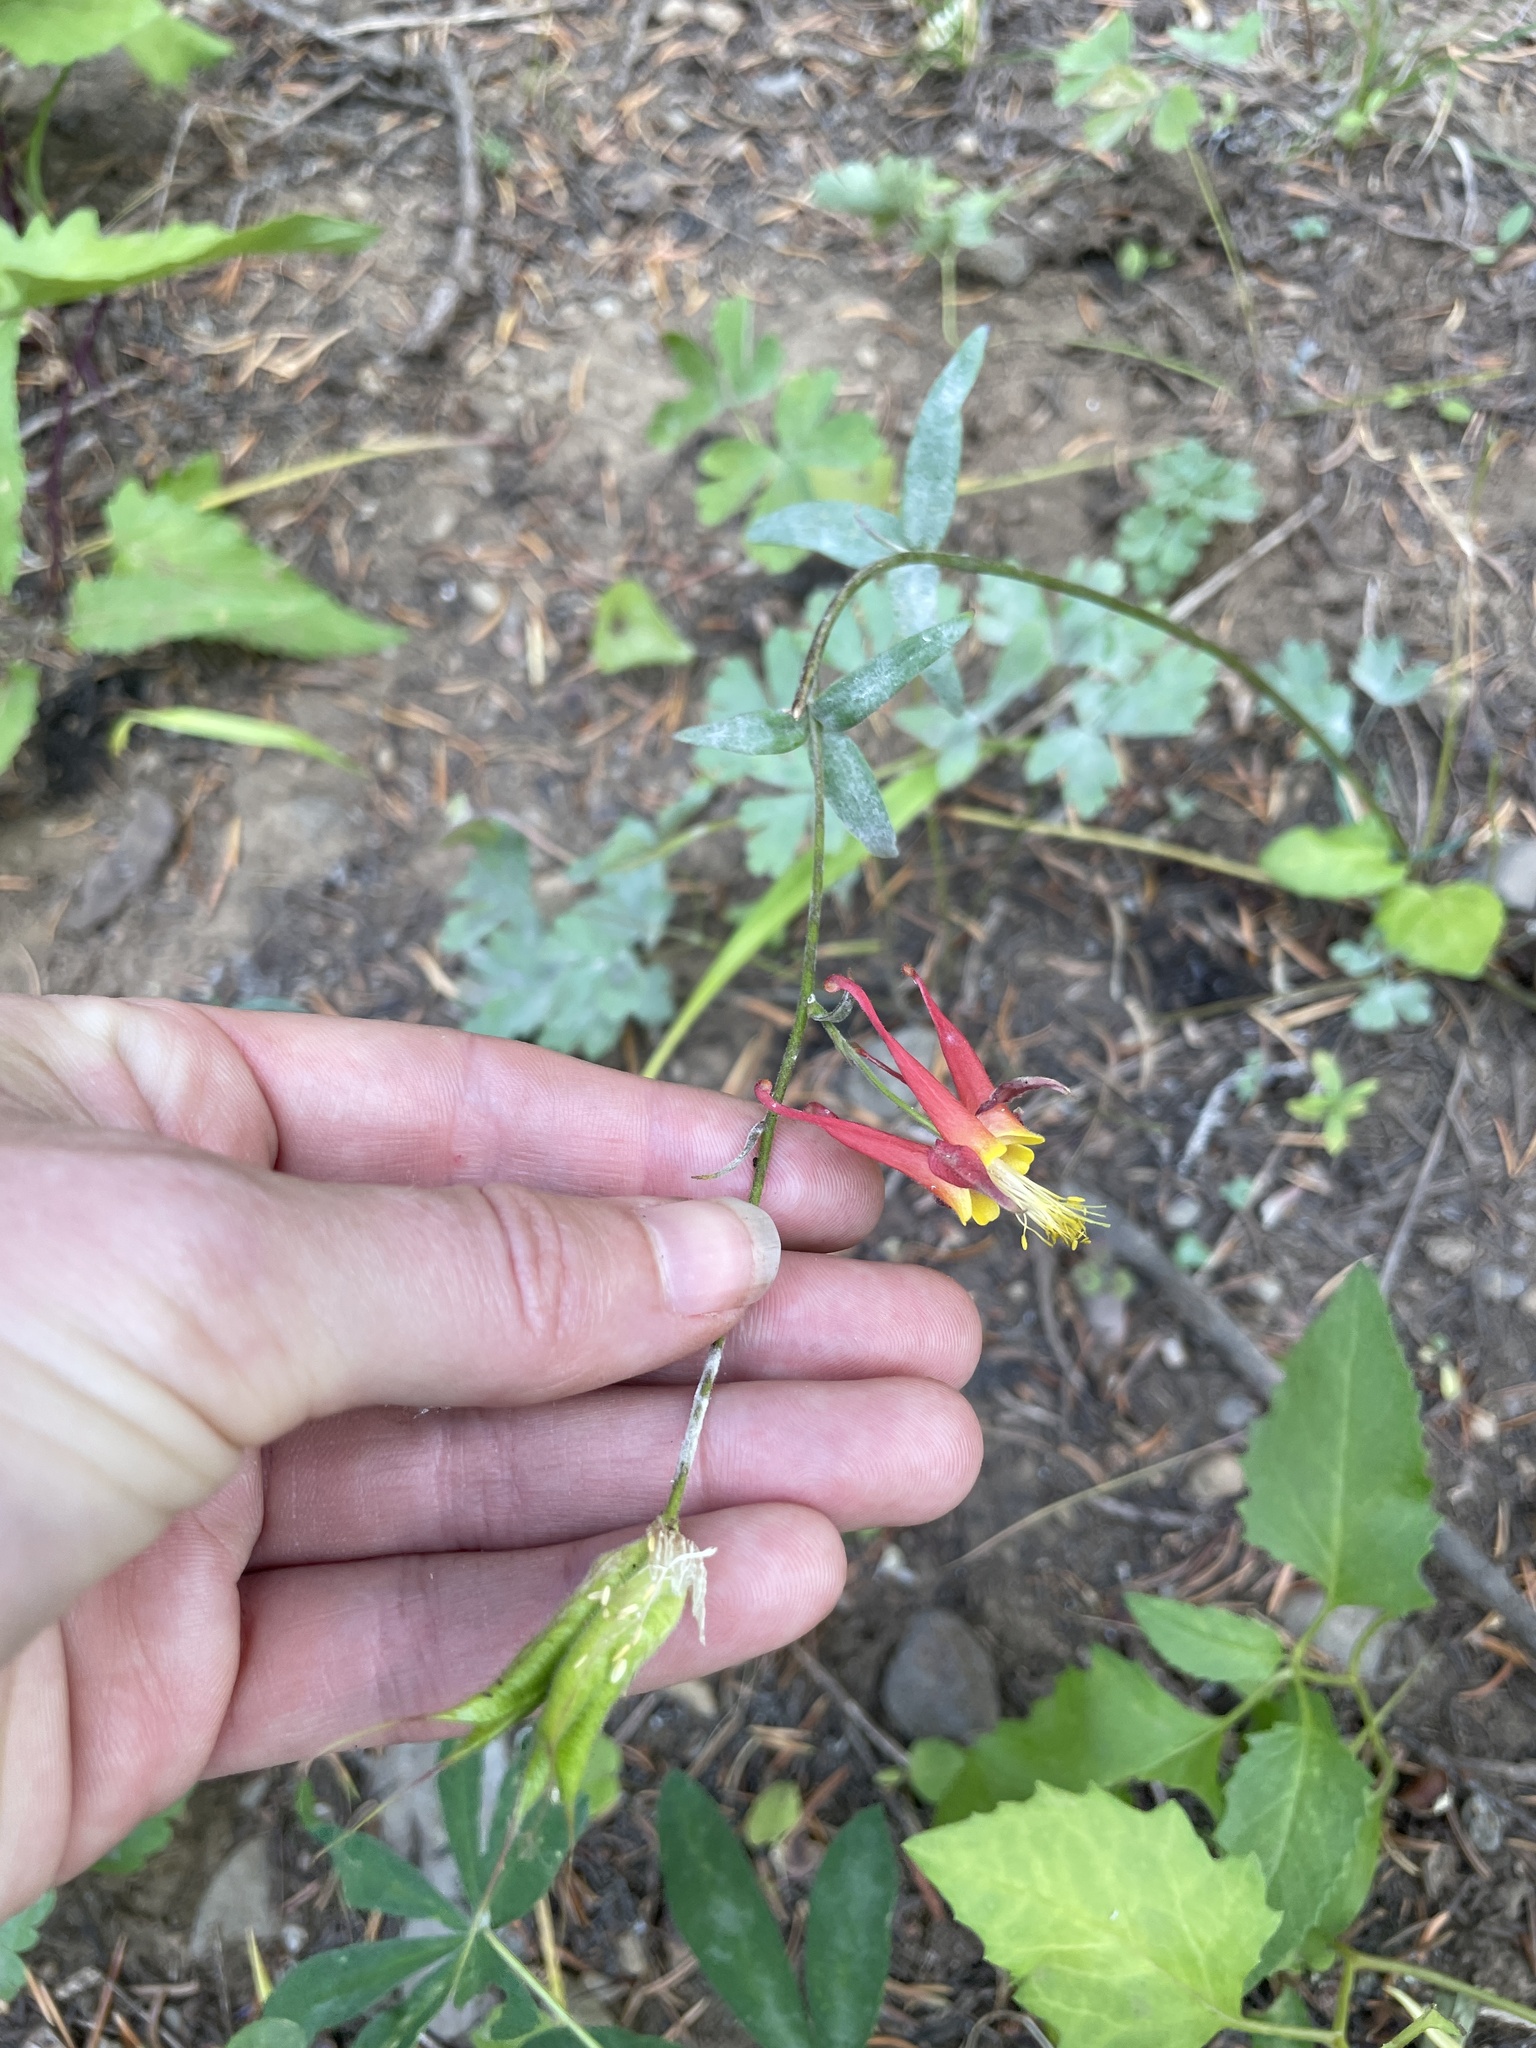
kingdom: Plantae
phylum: Tracheophyta
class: Magnoliopsida
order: Ranunculales
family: Ranunculaceae
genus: Aquilegia
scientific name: Aquilegia formosa
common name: Sitka columbine
